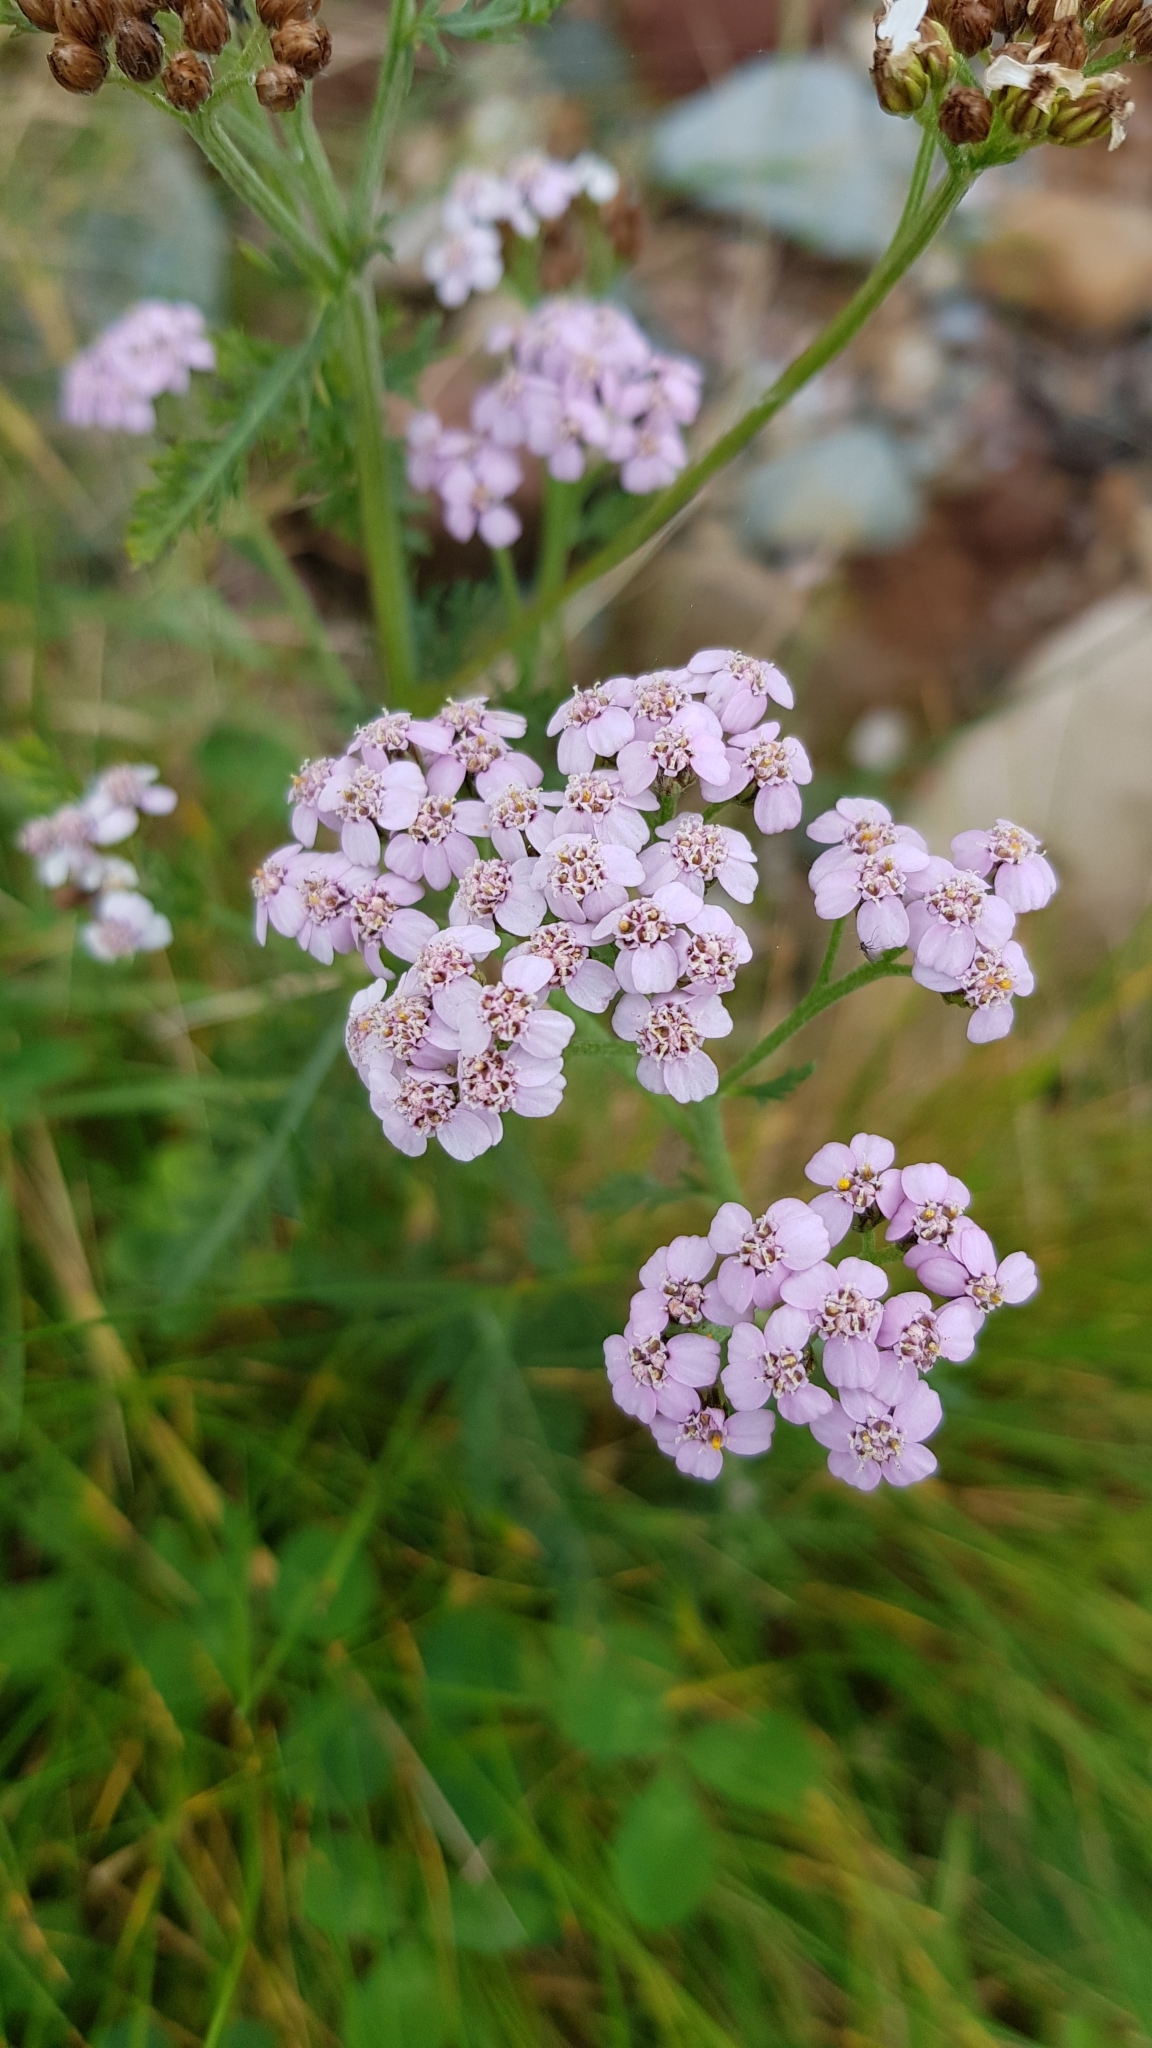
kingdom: Plantae
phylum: Tracheophyta
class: Magnoliopsida
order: Asterales
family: Asteraceae
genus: Achillea
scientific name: Achillea millefolium
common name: Yarrow
